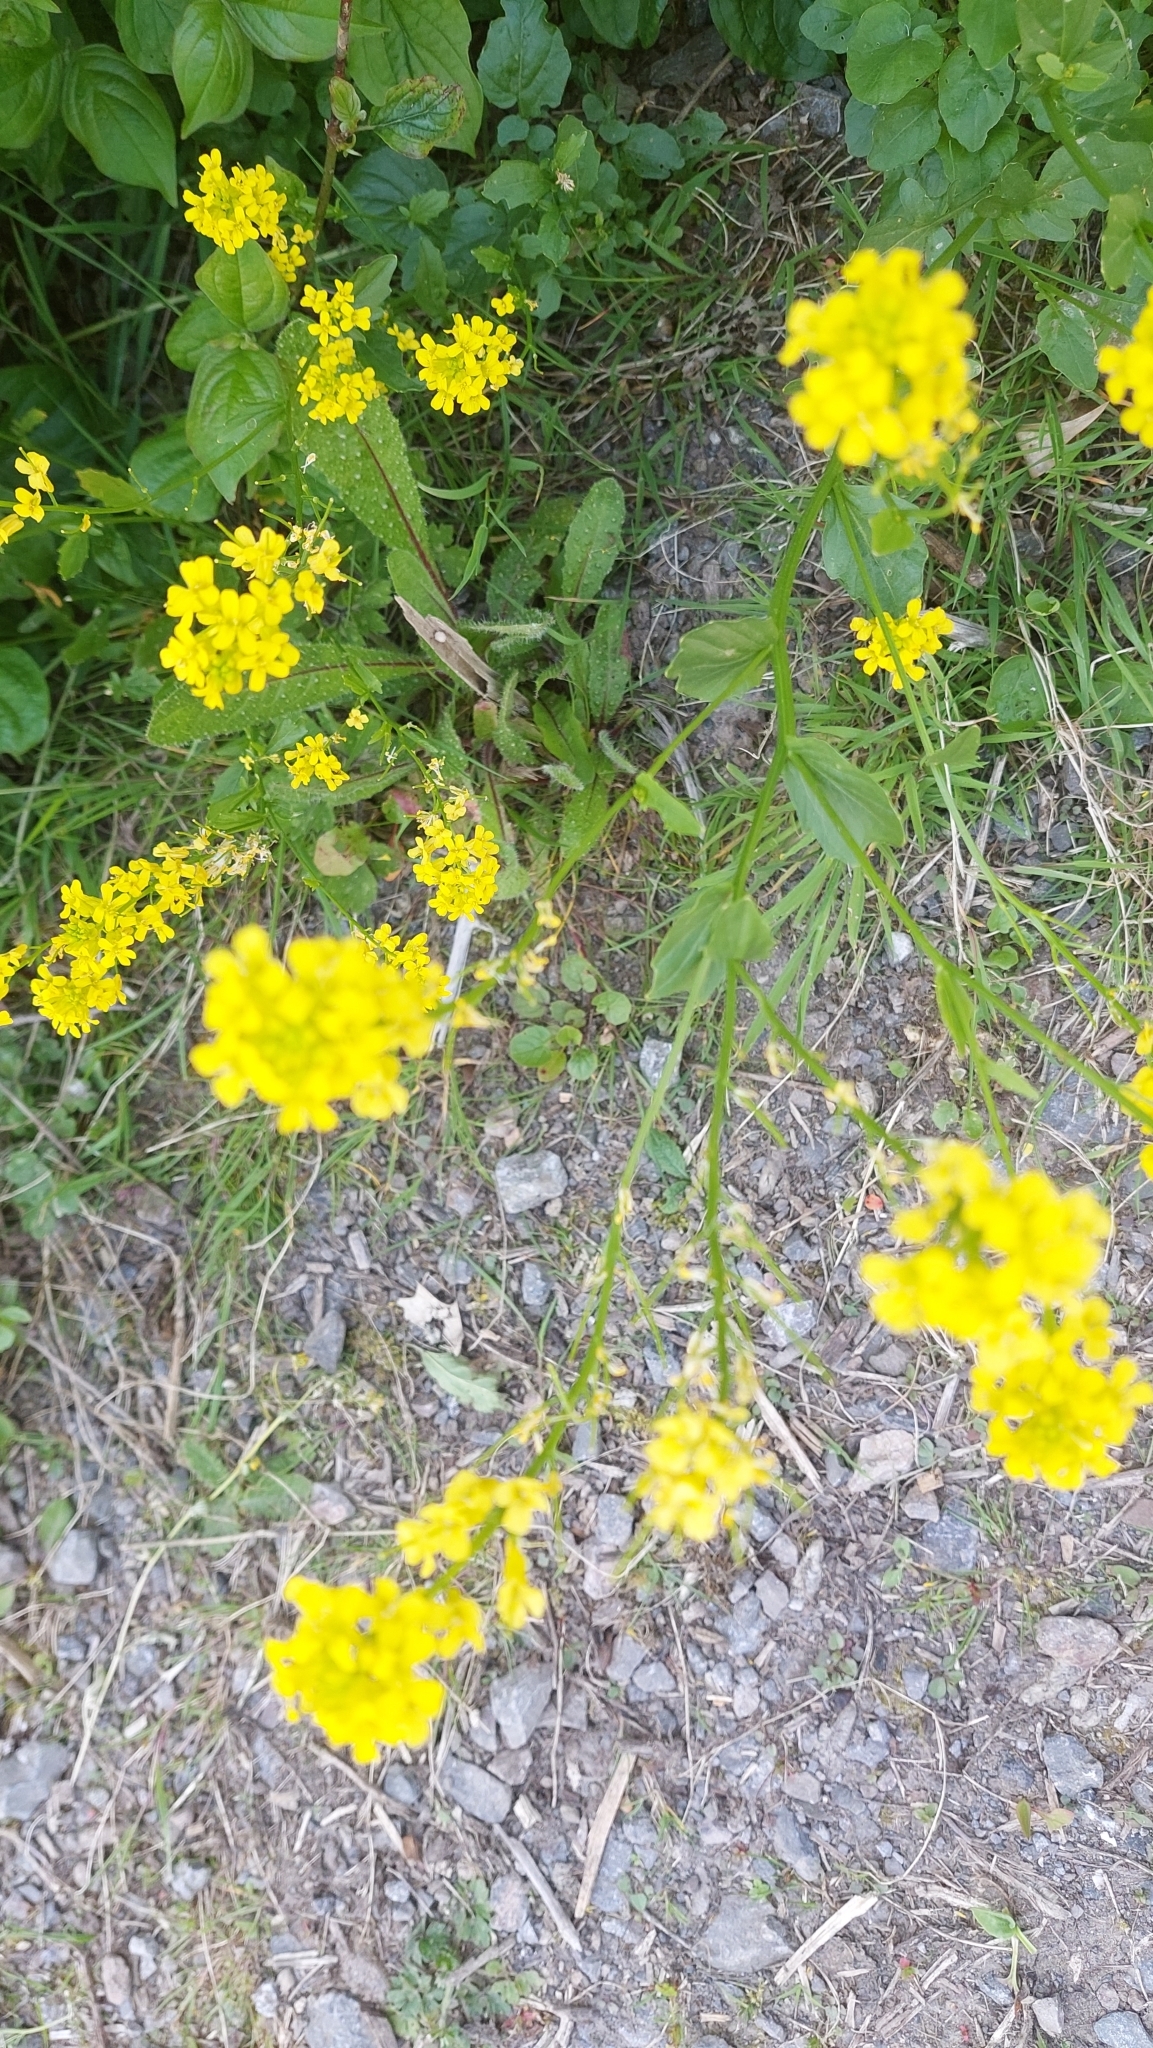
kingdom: Plantae
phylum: Tracheophyta
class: Magnoliopsida
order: Brassicales
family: Brassicaceae
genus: Barbarea
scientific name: Barbarea vulgaris
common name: Cressy-greens
